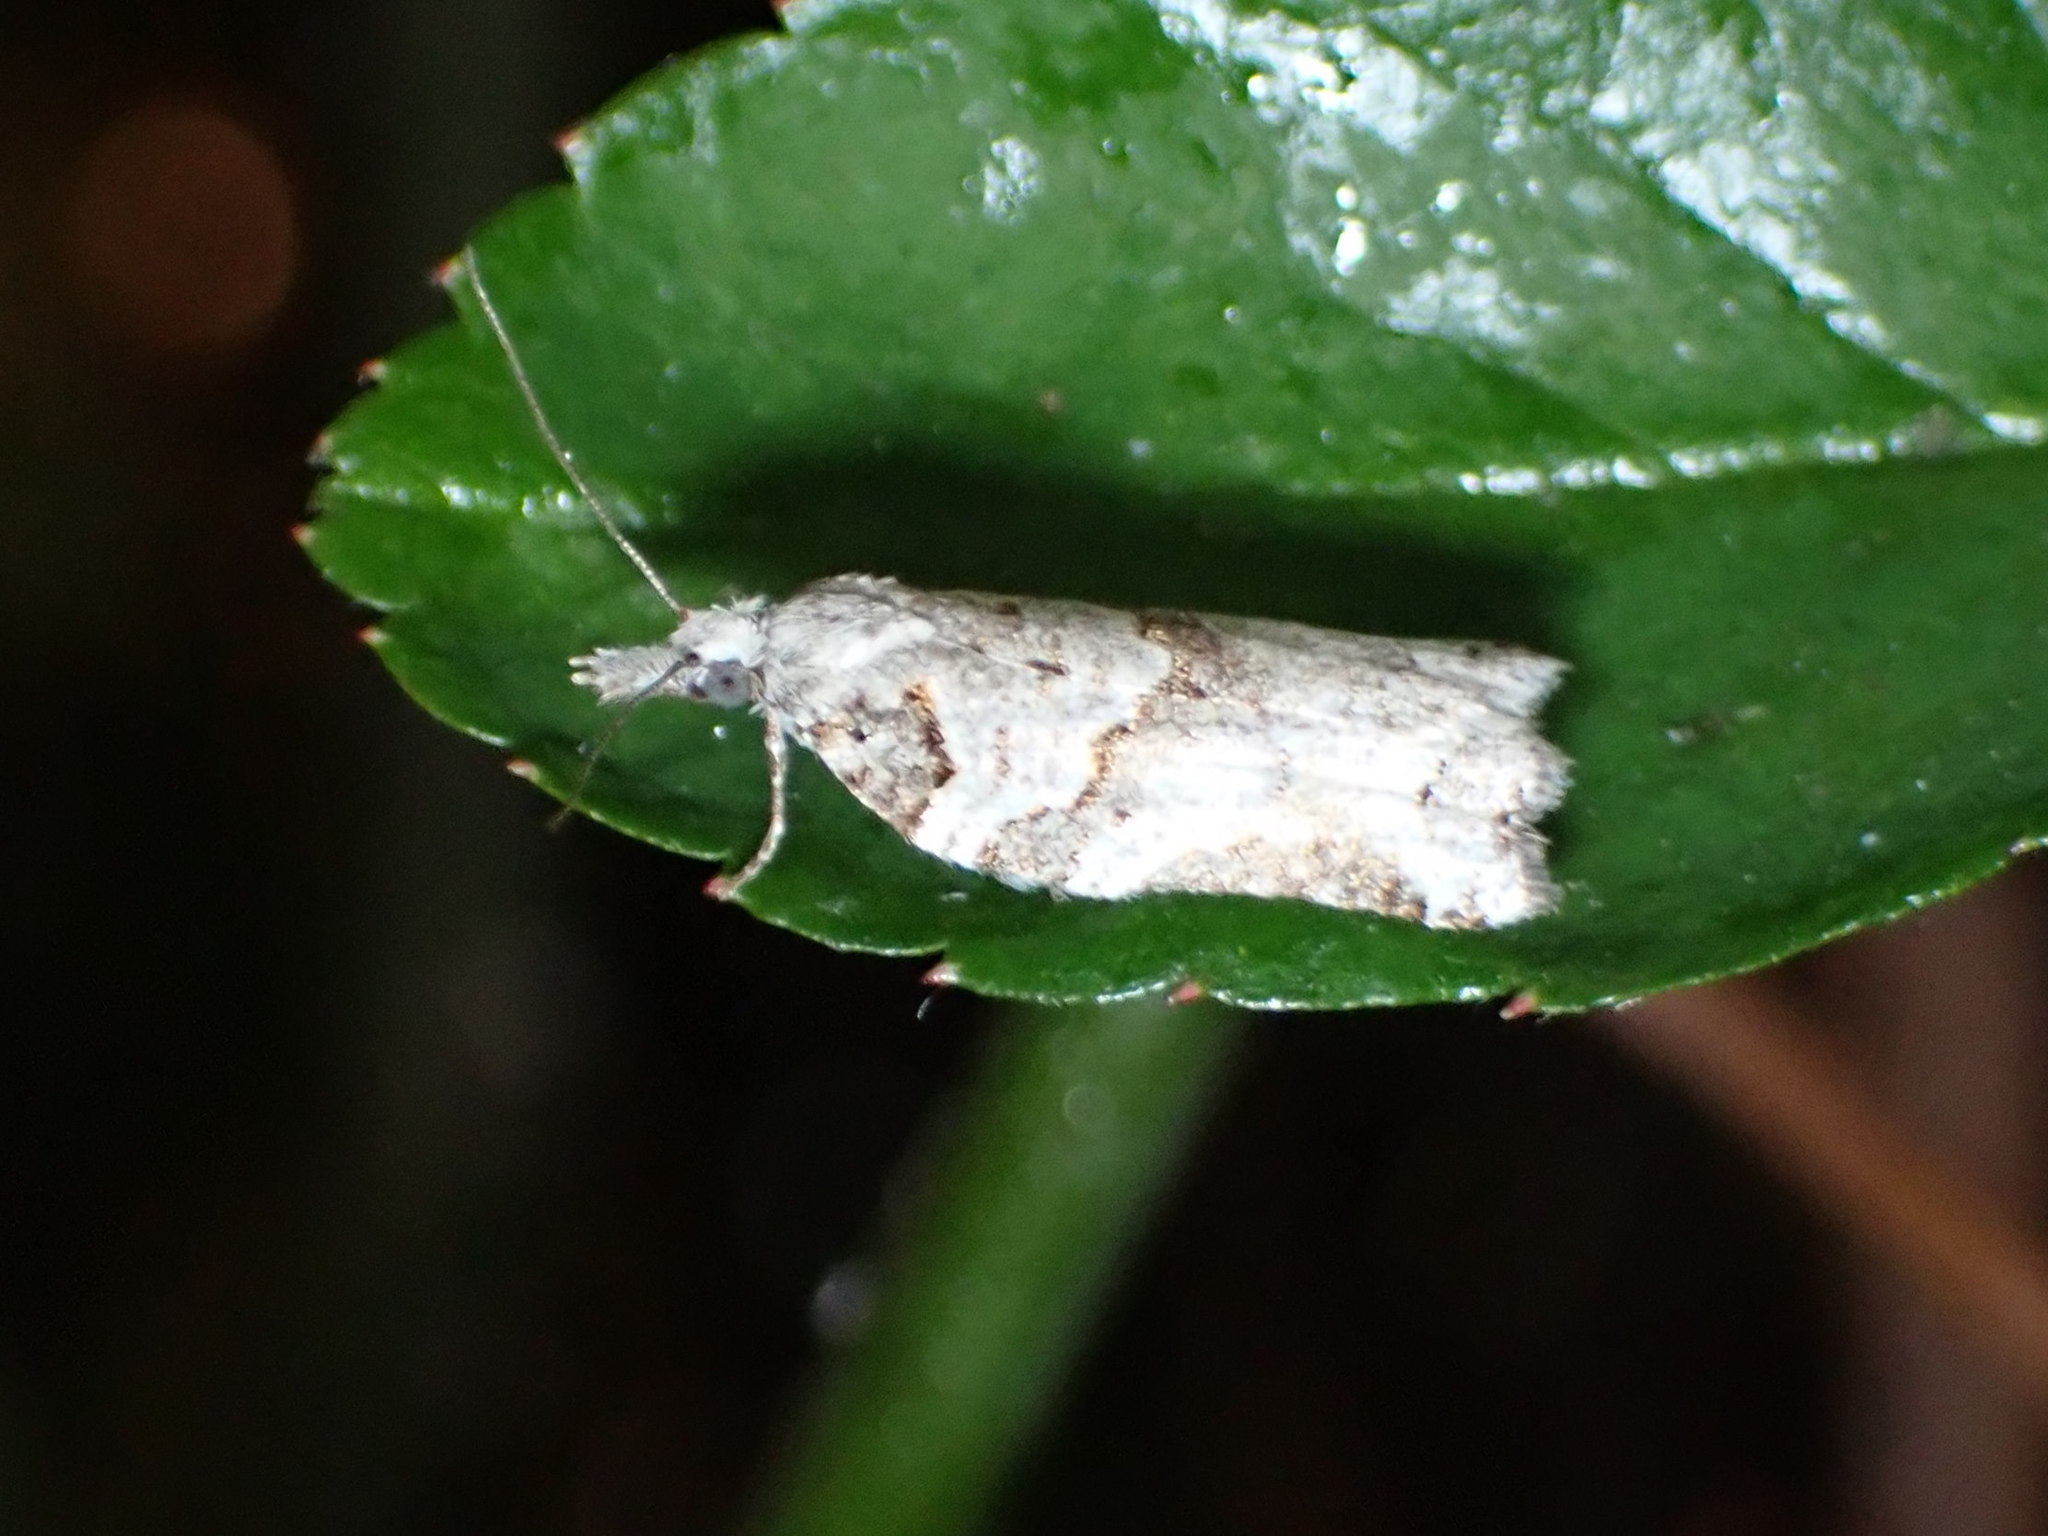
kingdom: Animalia
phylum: Arthropoda
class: Insecta
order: Lepidoptera
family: Tortricidae
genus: Harmologa
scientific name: Harmologa amplexana
